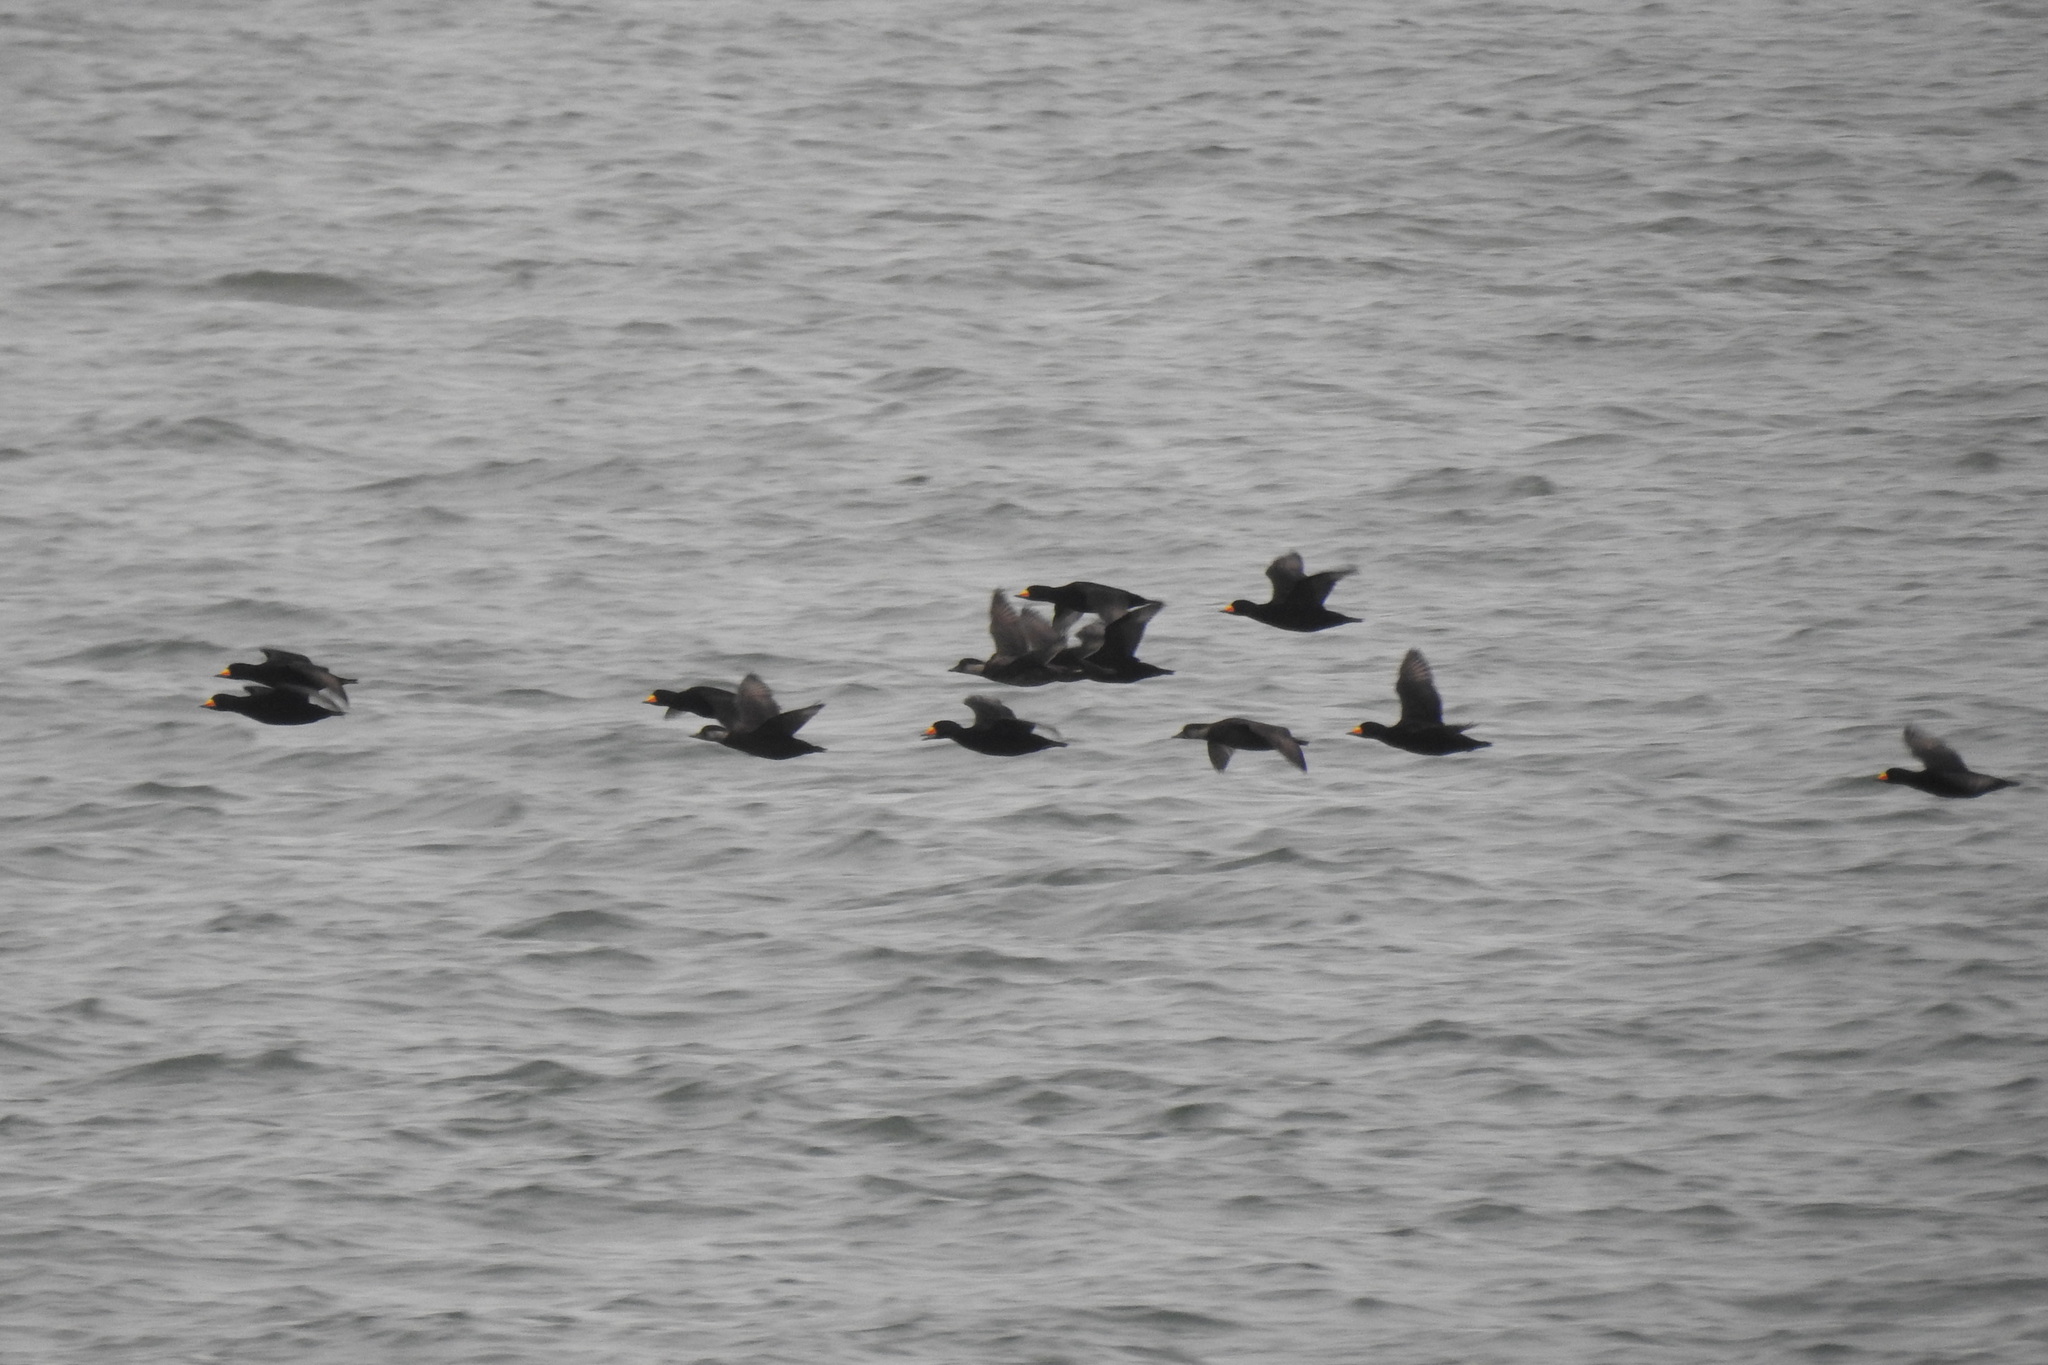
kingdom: Animalia
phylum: Chordata
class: Aves
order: Anseriformes
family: Anatidae
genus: Melanitta
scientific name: Melanitta americana
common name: Black scoter
